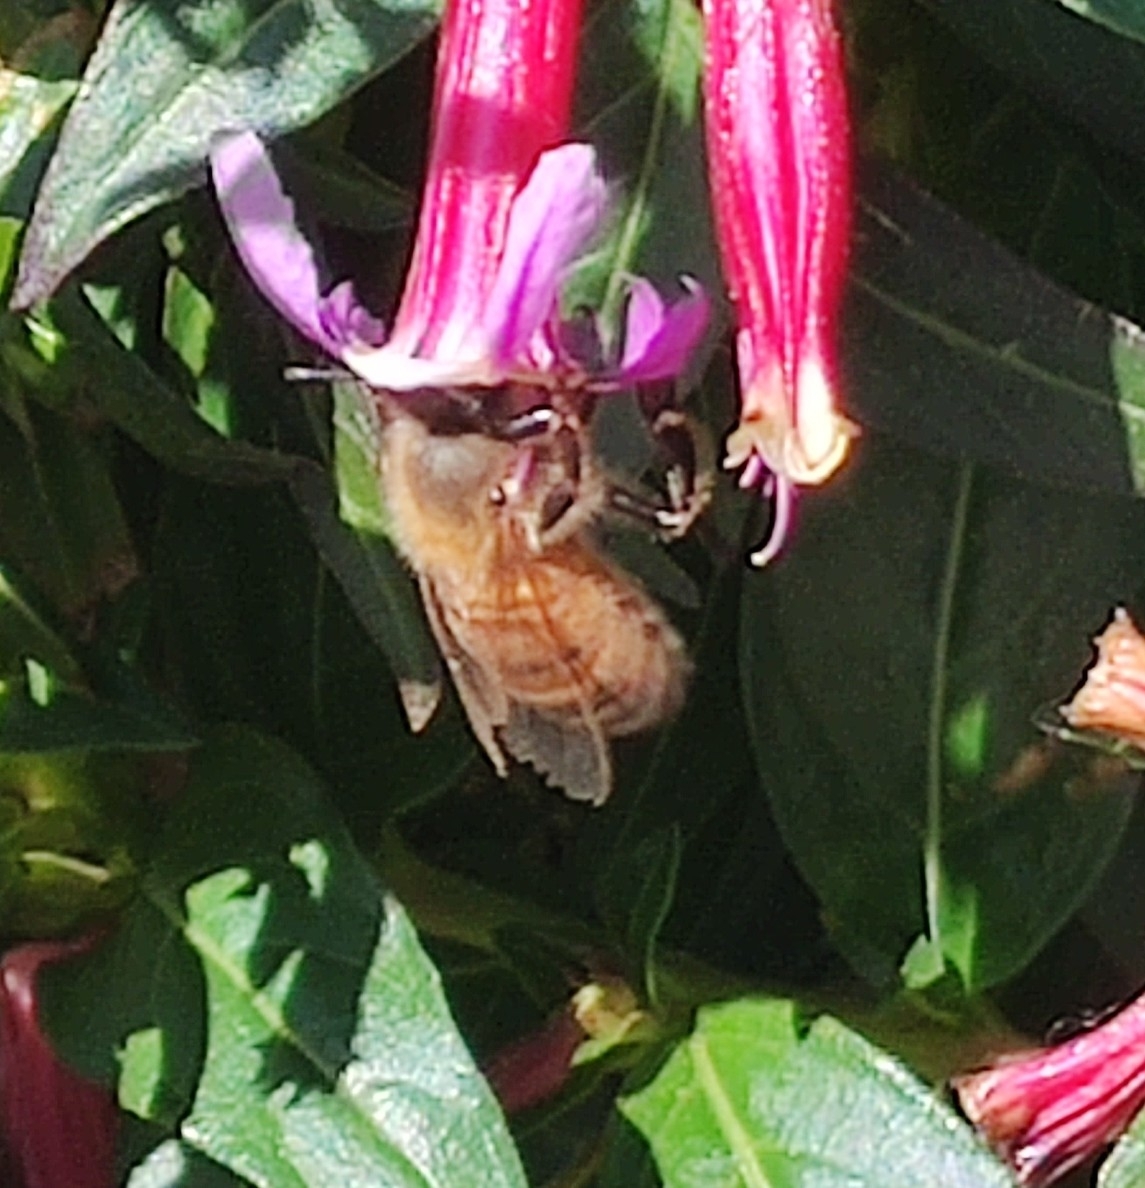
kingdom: Animalia
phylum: Arthropoda
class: Insecta
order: Hymenoptera
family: Apidae
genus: Apis
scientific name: Apis mellifera
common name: Honey bee
